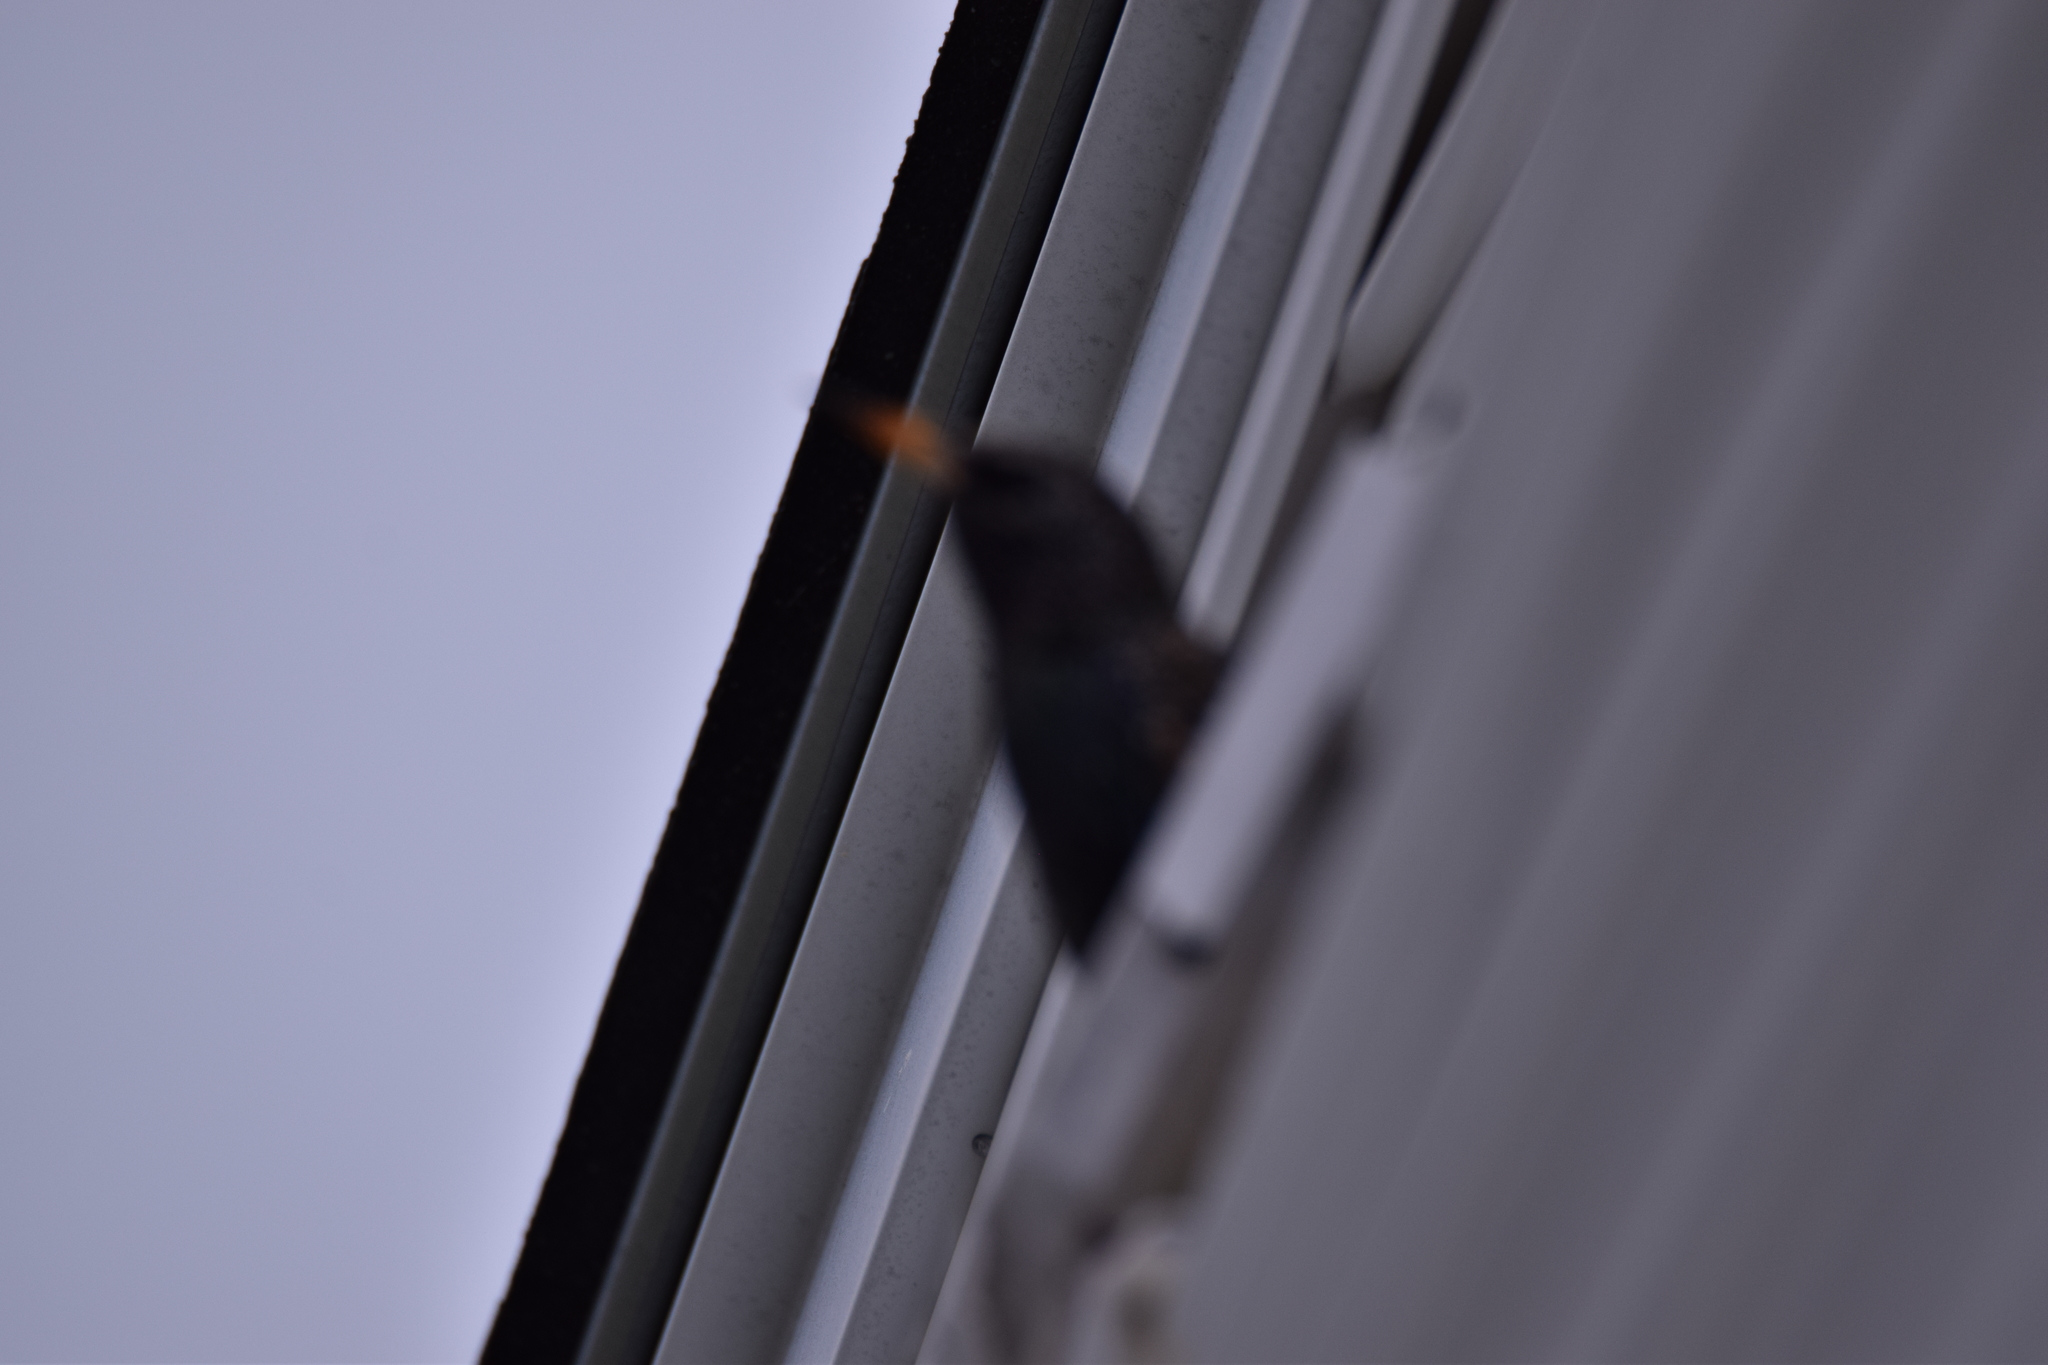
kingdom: Animalia
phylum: Chordata
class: Aves
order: Passeriformes
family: Sturnidae
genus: Sturnus
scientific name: Sturnus vulgaris
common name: Common starling
